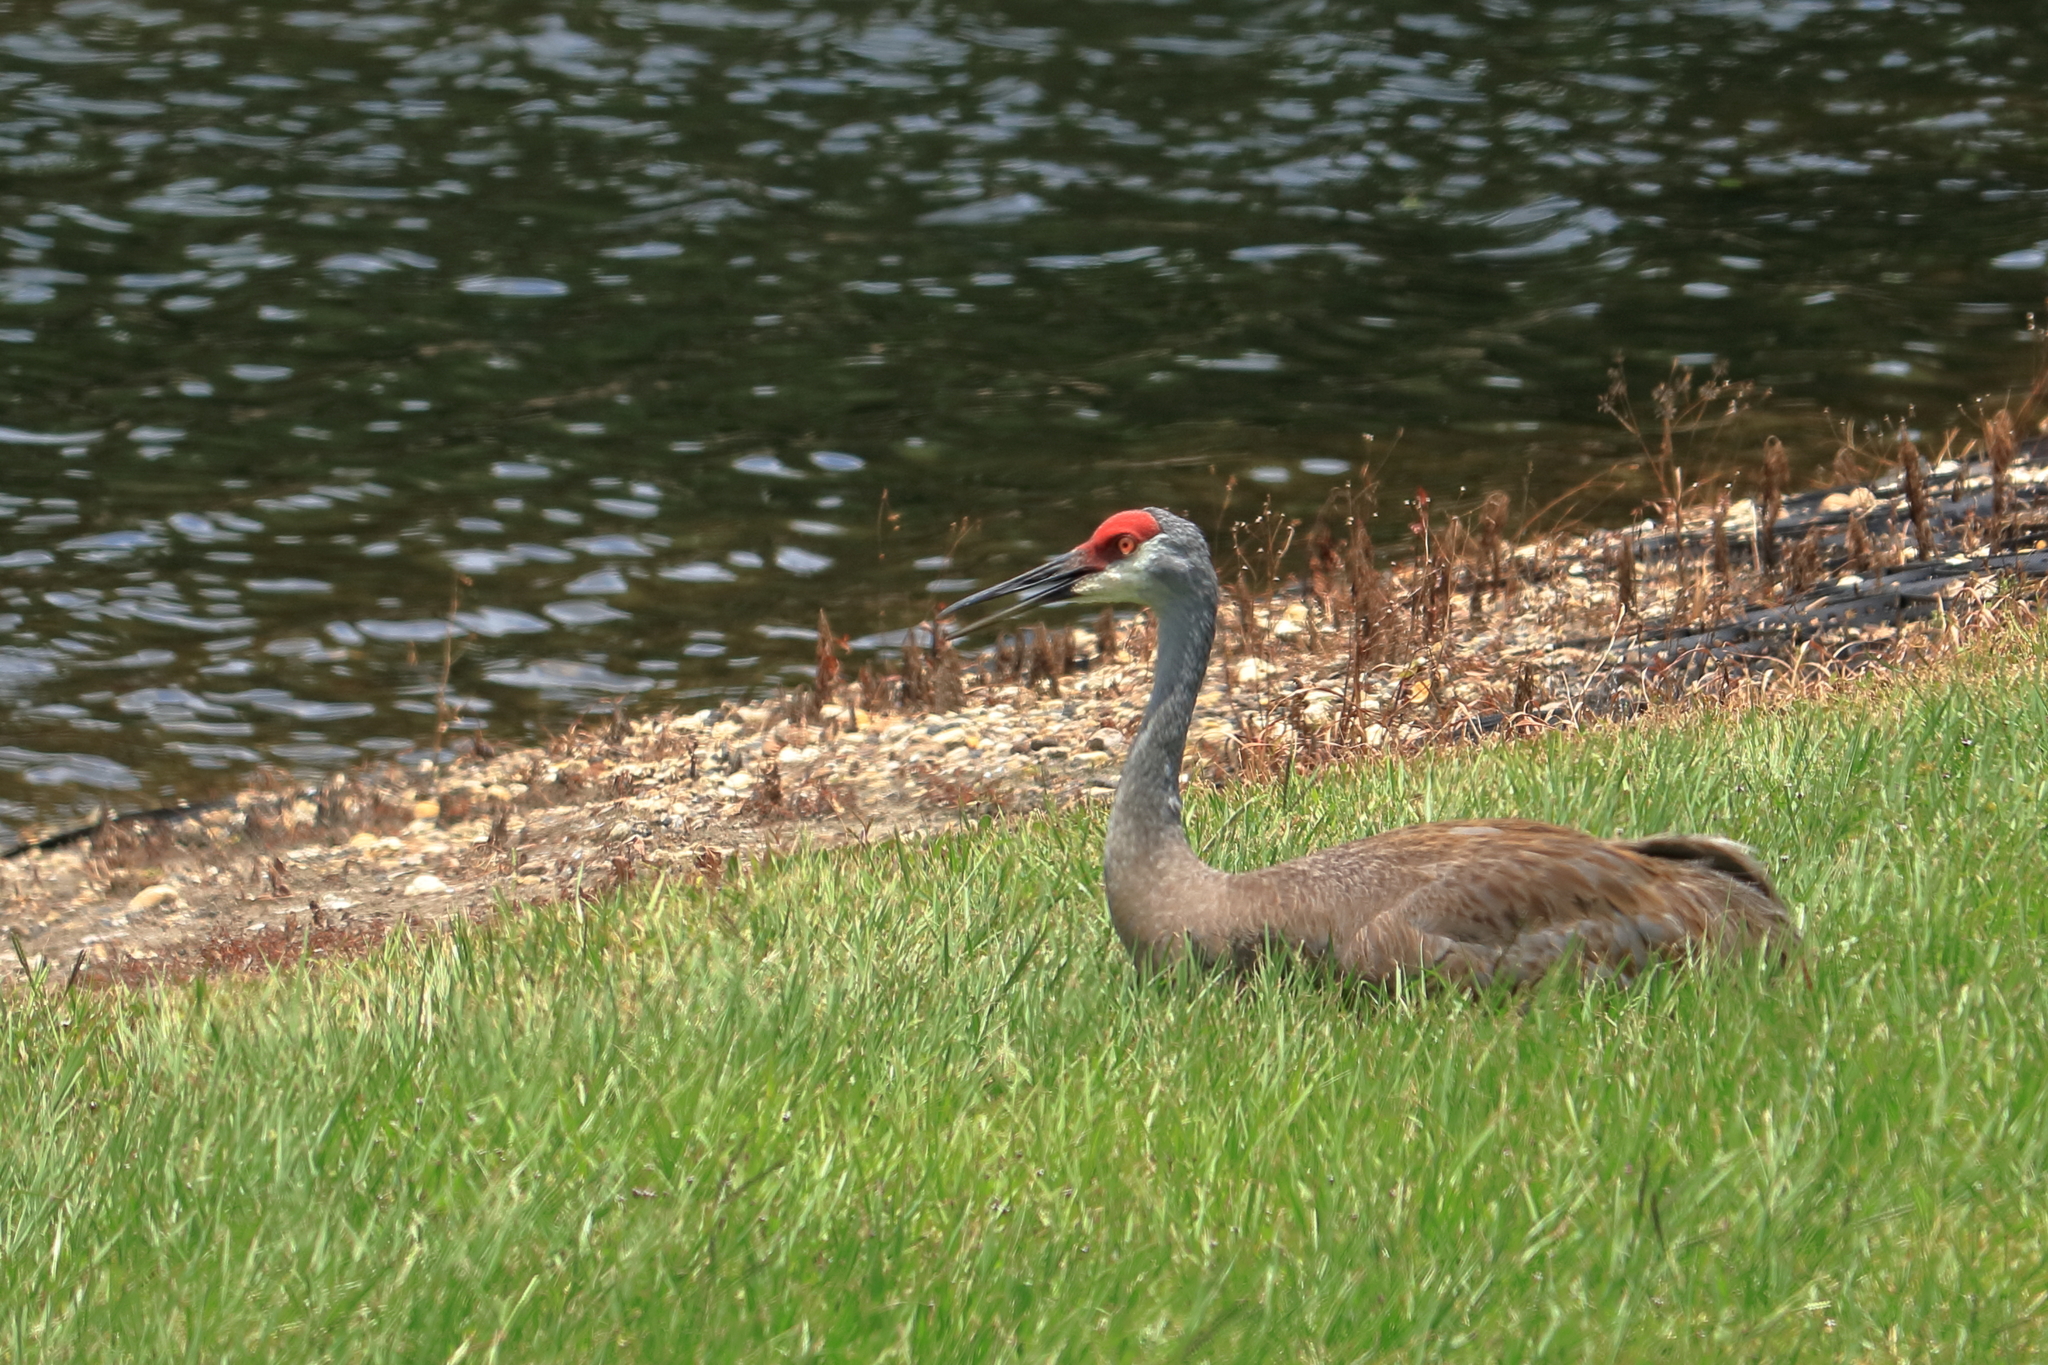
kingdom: Animalia
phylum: Chordata
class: Aves
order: Gruiformes
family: Gruidae
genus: Grus
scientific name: Grus canadensis
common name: Sandhill crane
